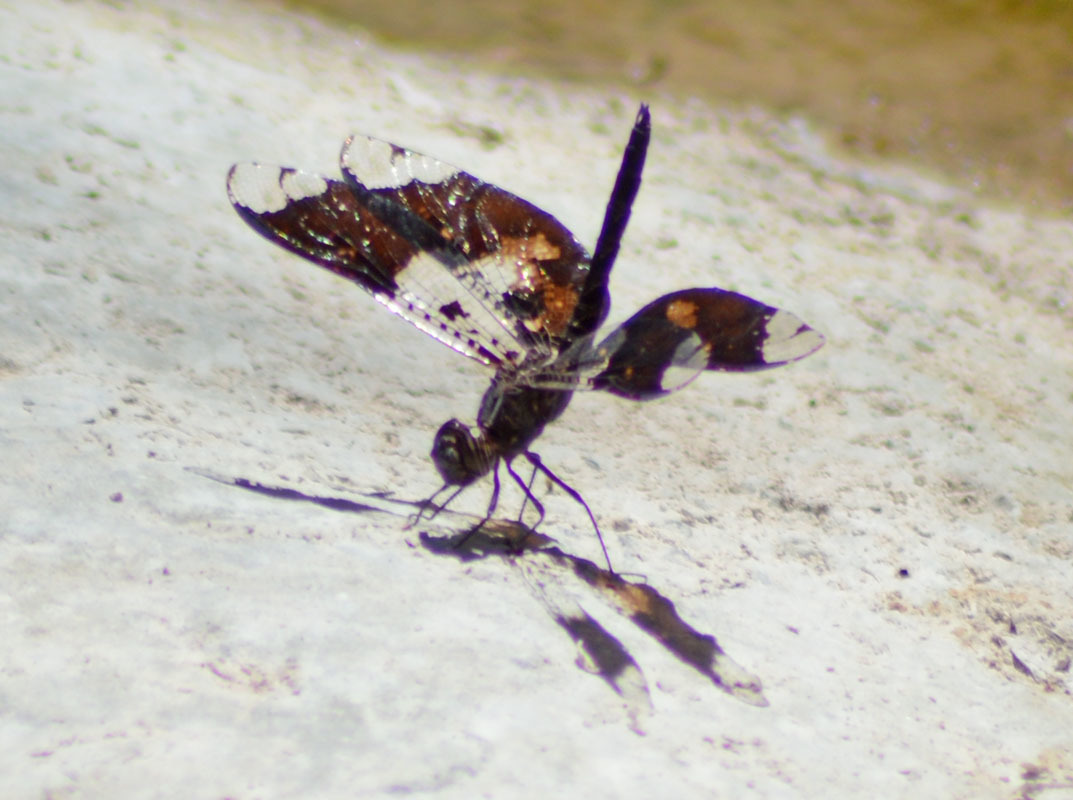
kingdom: Animalia
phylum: Arthropoda
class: Insecta
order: Odonata
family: Libellulidae
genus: Pseudoleon
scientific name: Pseudoleon superbus
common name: Filigree skimmer
